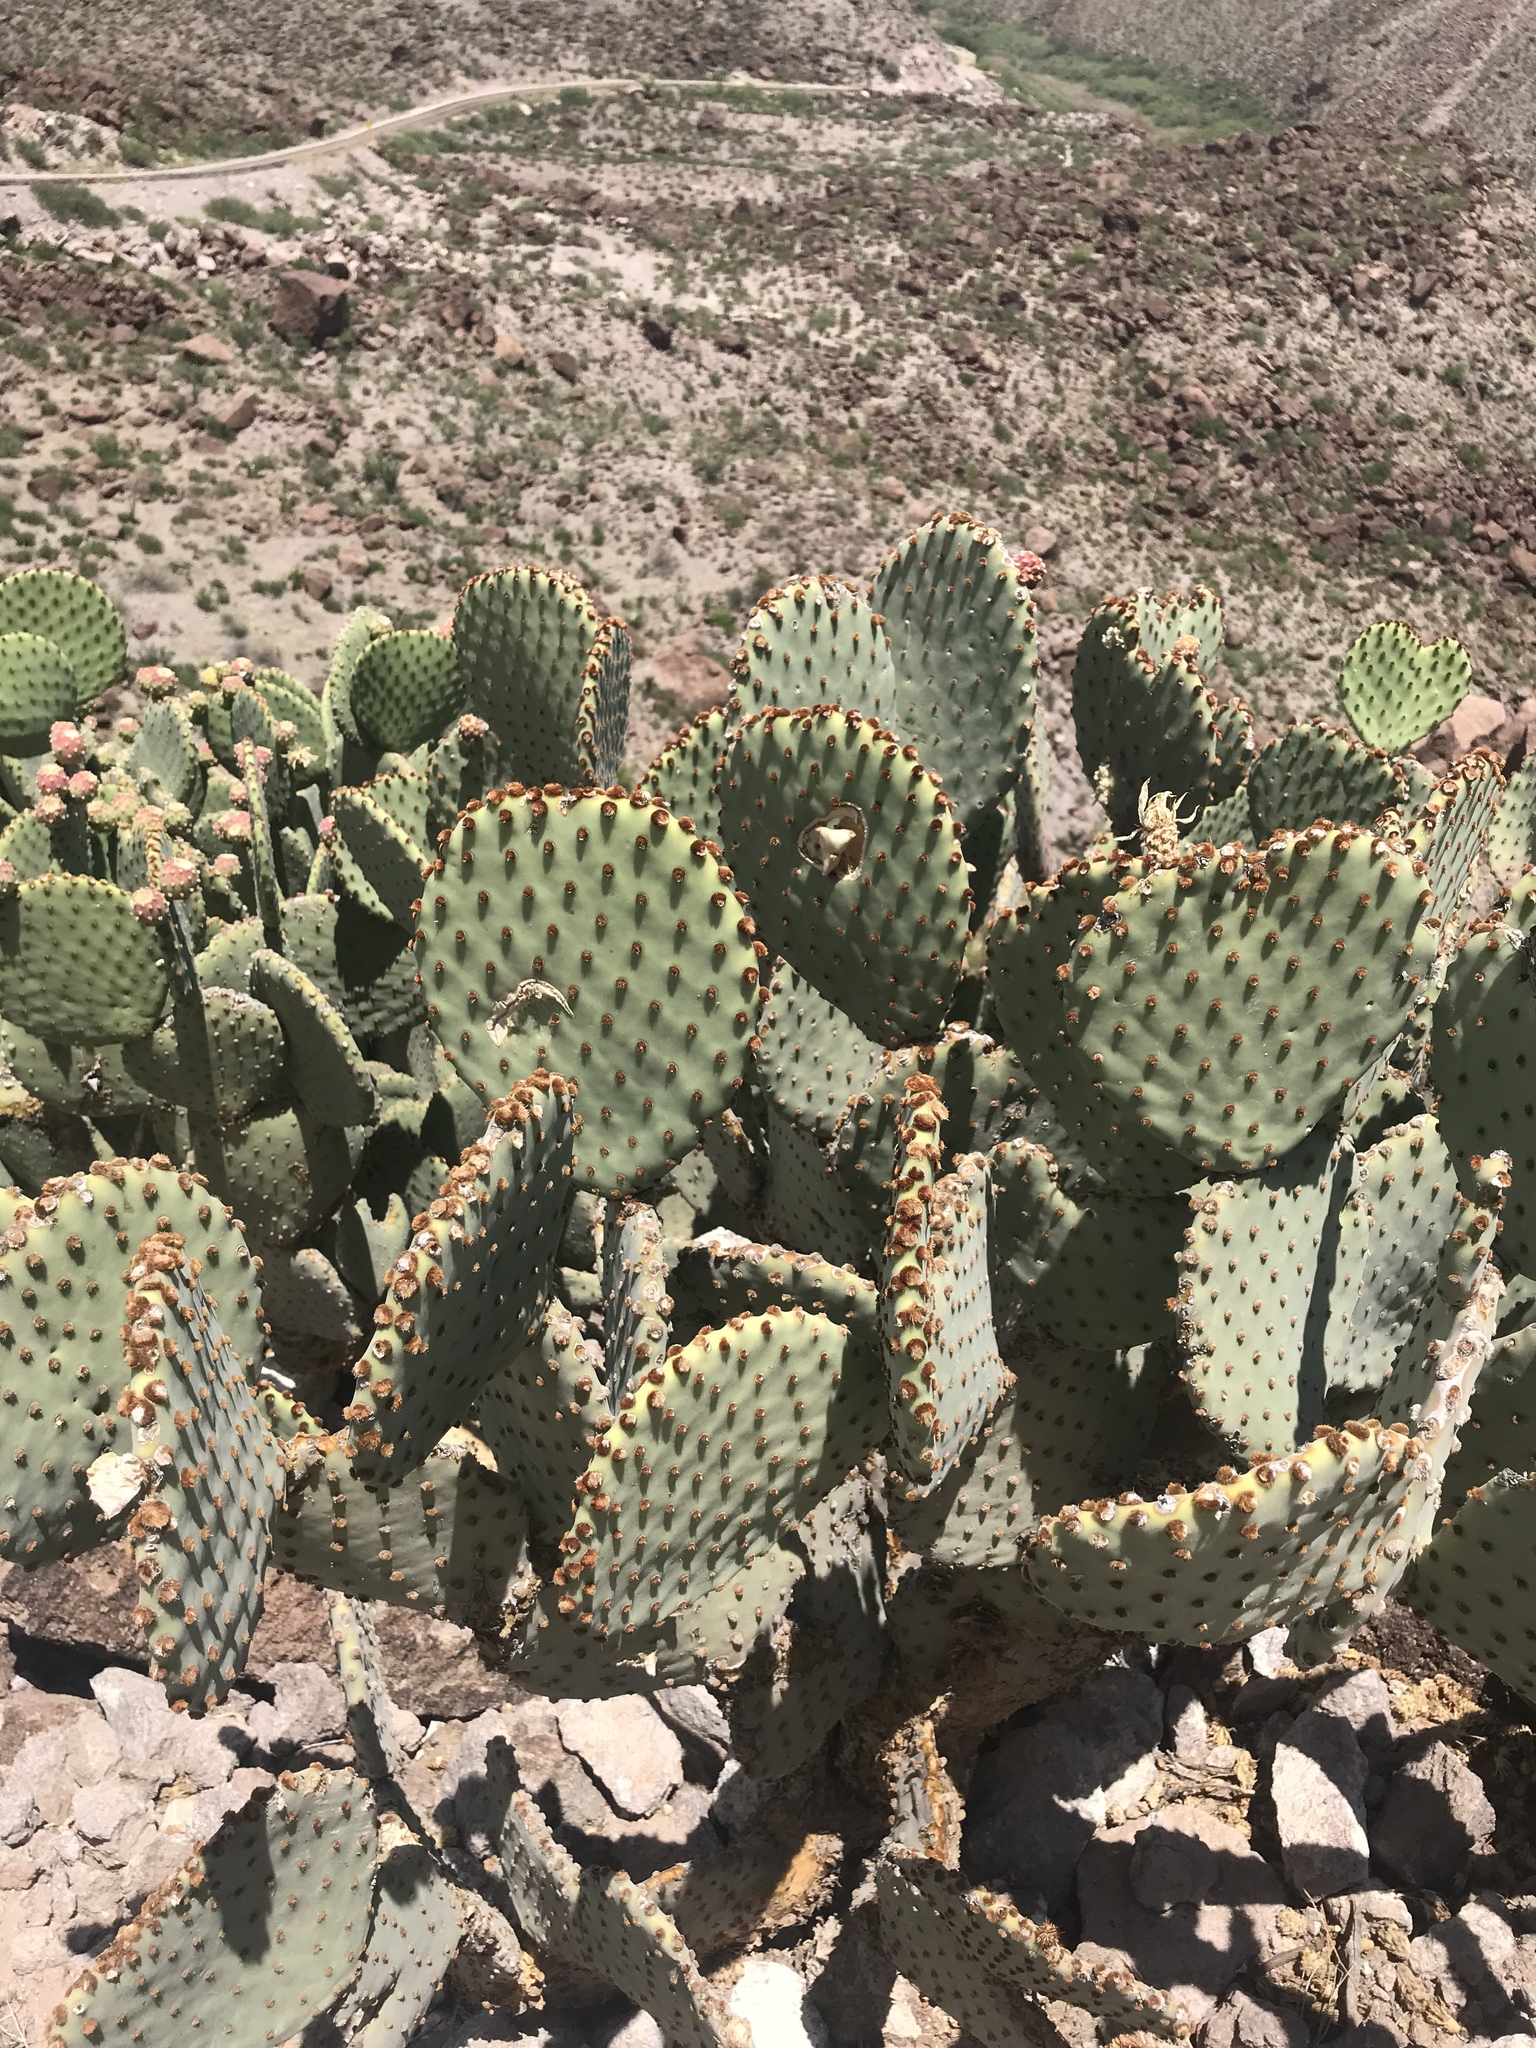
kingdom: Plantae
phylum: Tracheophyta
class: Magnoliopsida
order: Caryophyllales
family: Cactaceae
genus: Opuntia
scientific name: Opuntia rufida
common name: Blind pricklypear
